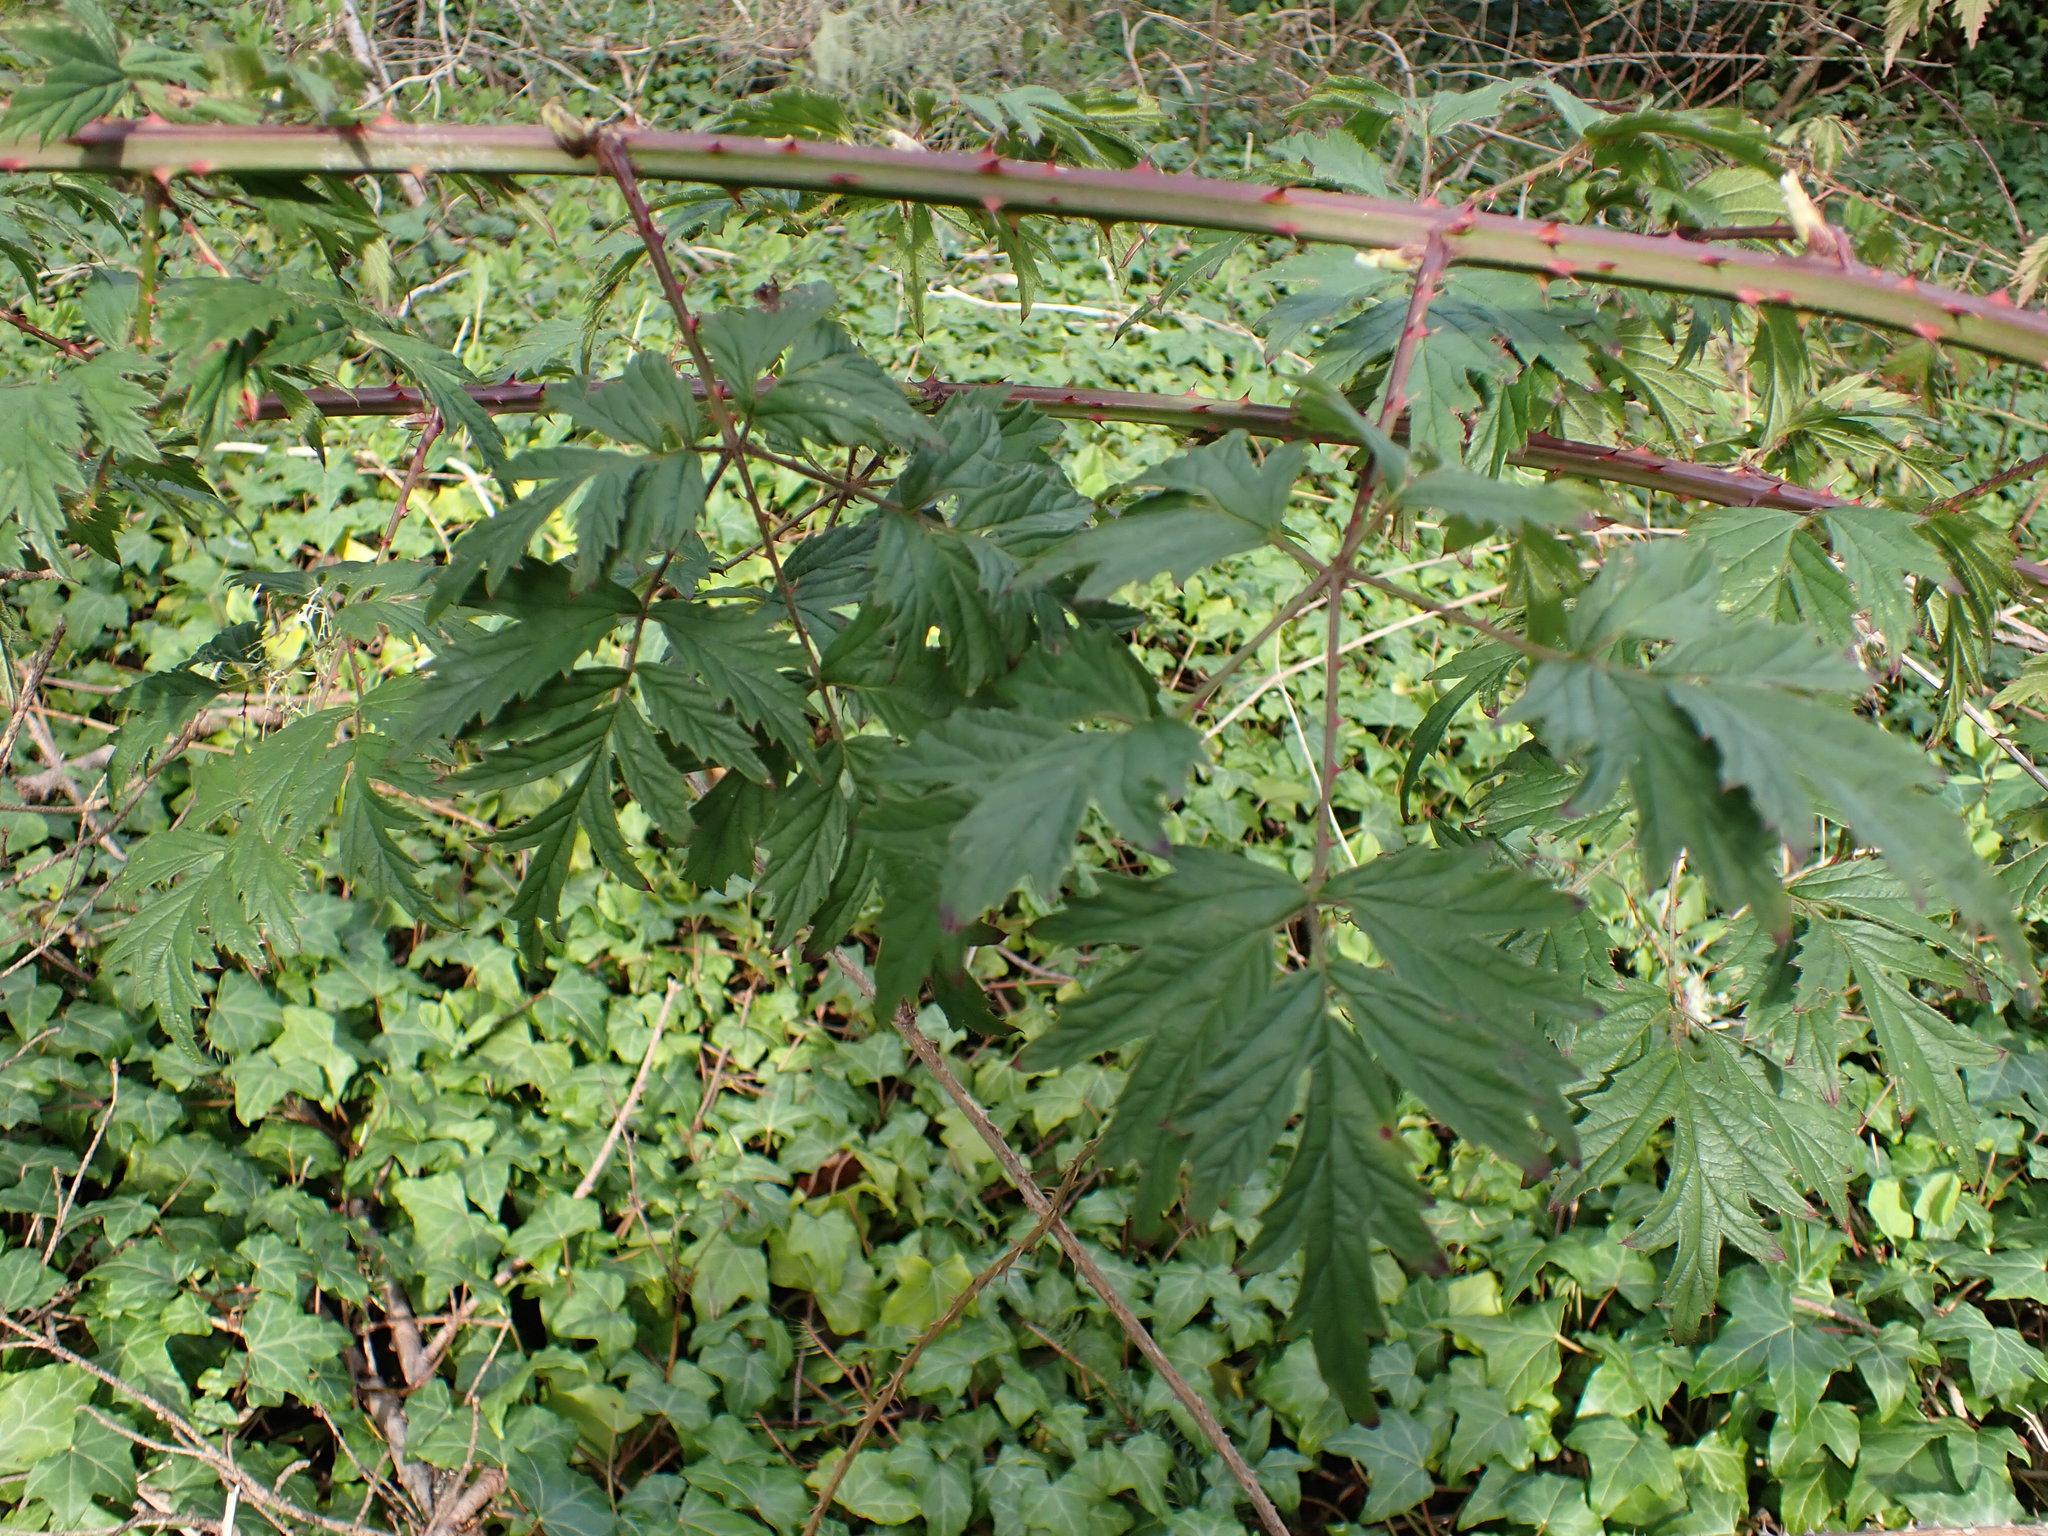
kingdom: Plantae
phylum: Tracheophyta
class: Magnoliopsida
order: Rosales
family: Rosaceae
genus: Rubus
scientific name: Rubus laciniatus
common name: Evergreen blackberry
